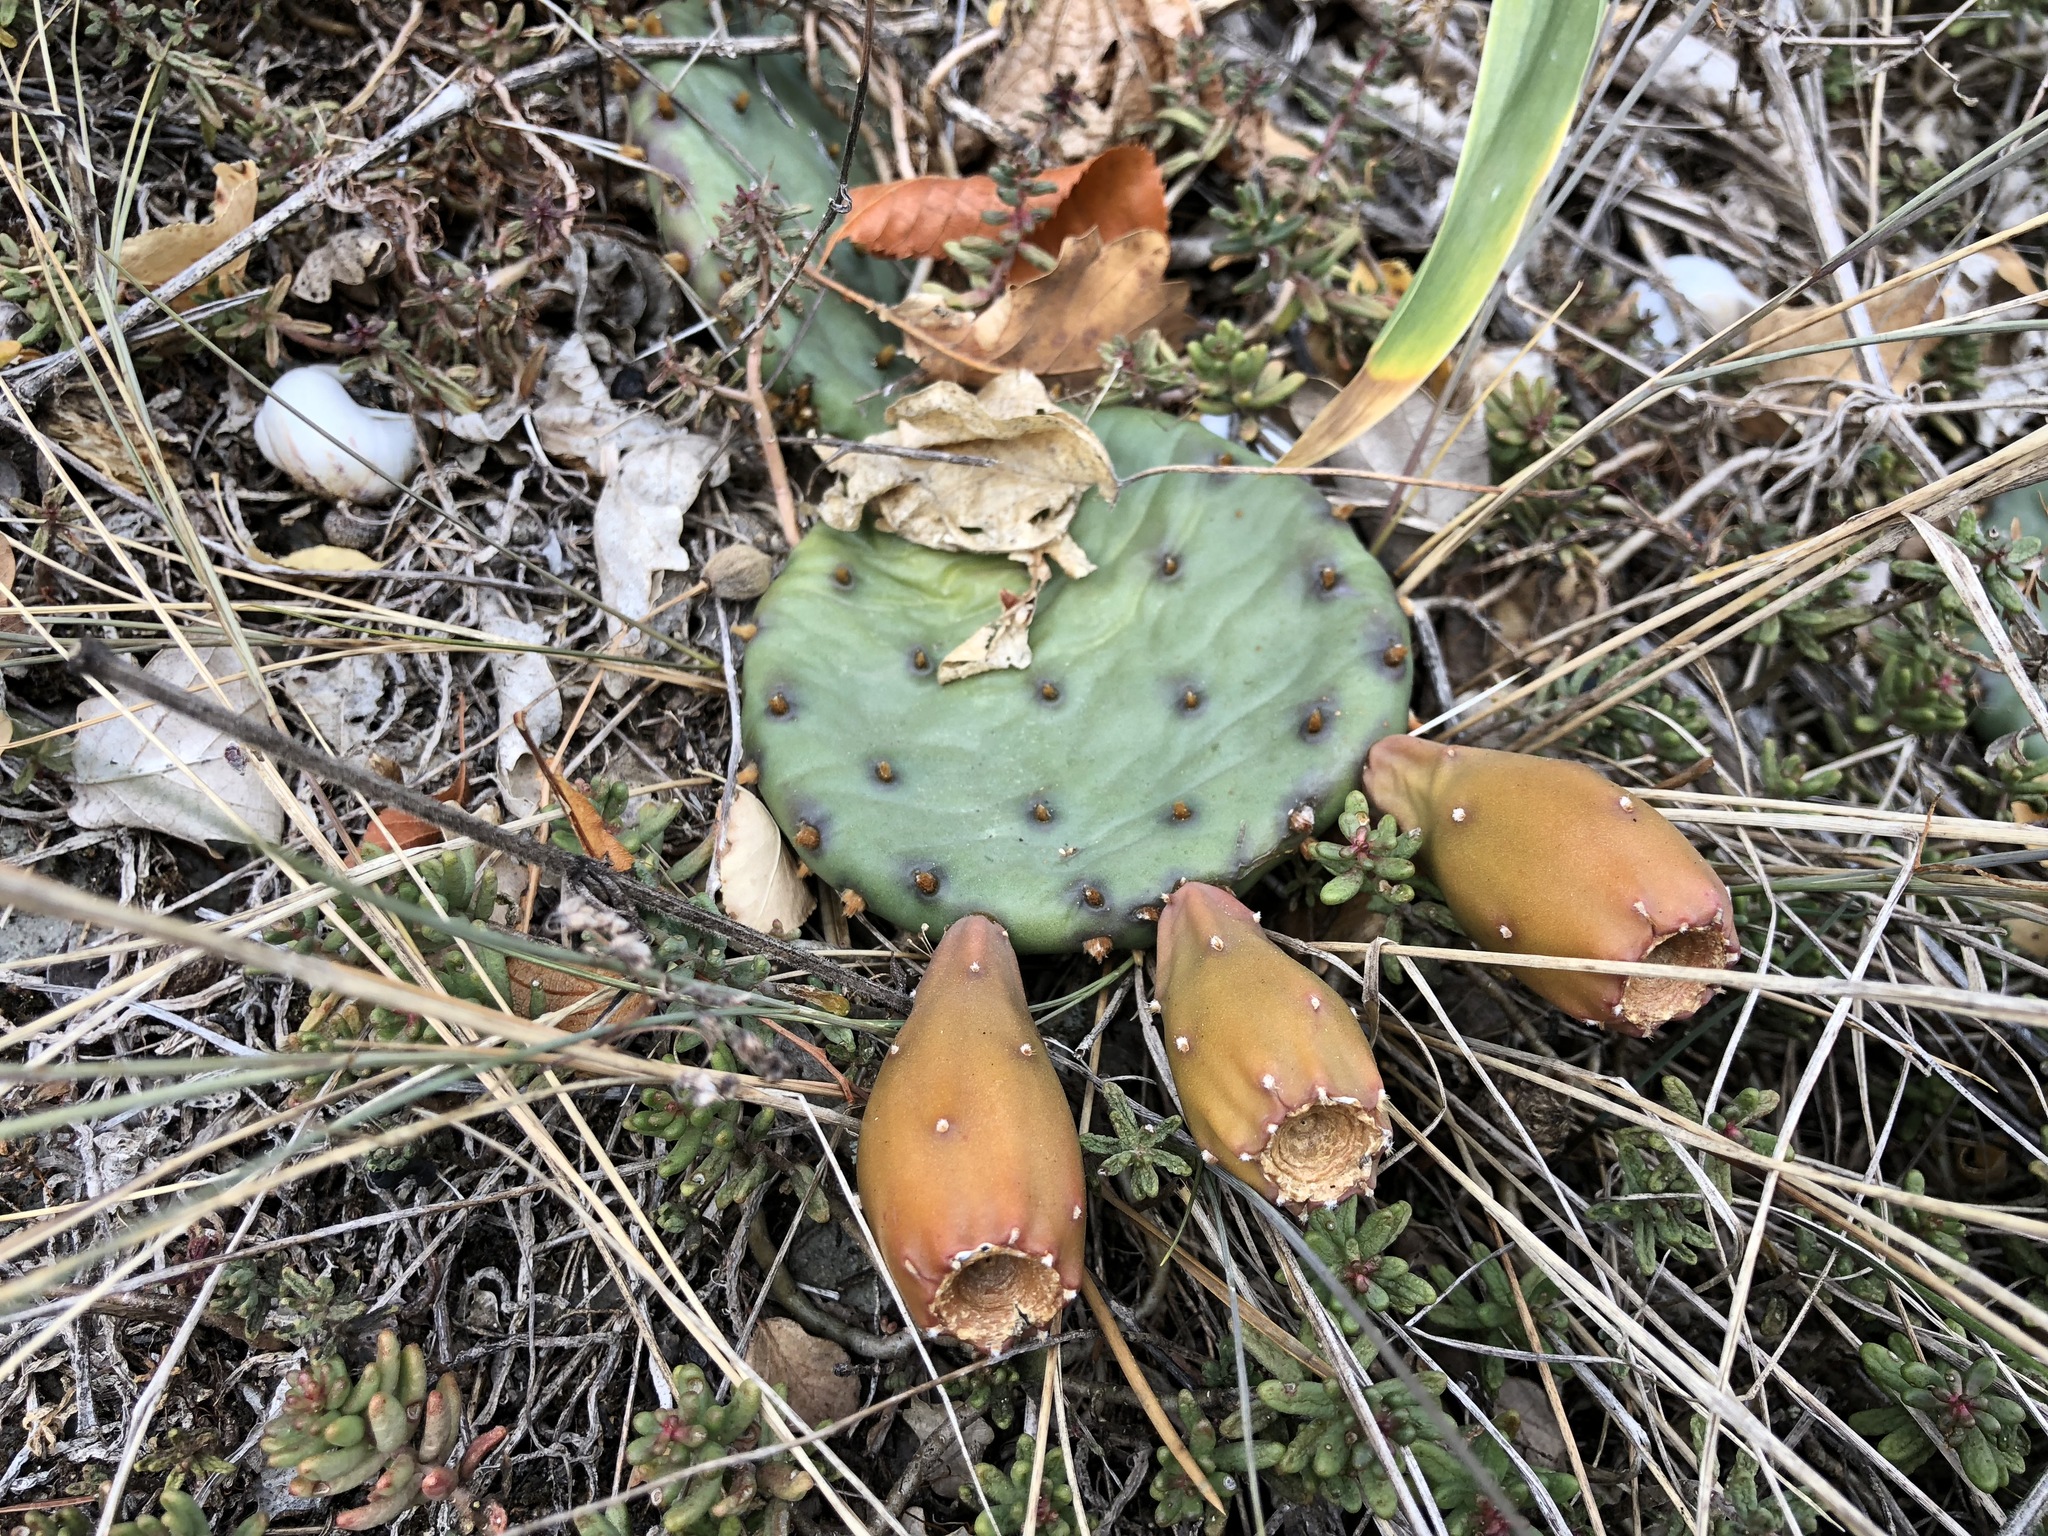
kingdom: Plantae
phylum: Tracheophyta
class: Magnoliopsida
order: Caryophyllales
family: Cactaceae
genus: Opuntia
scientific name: Opuntia humifusa
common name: Eastern prickly-pear
